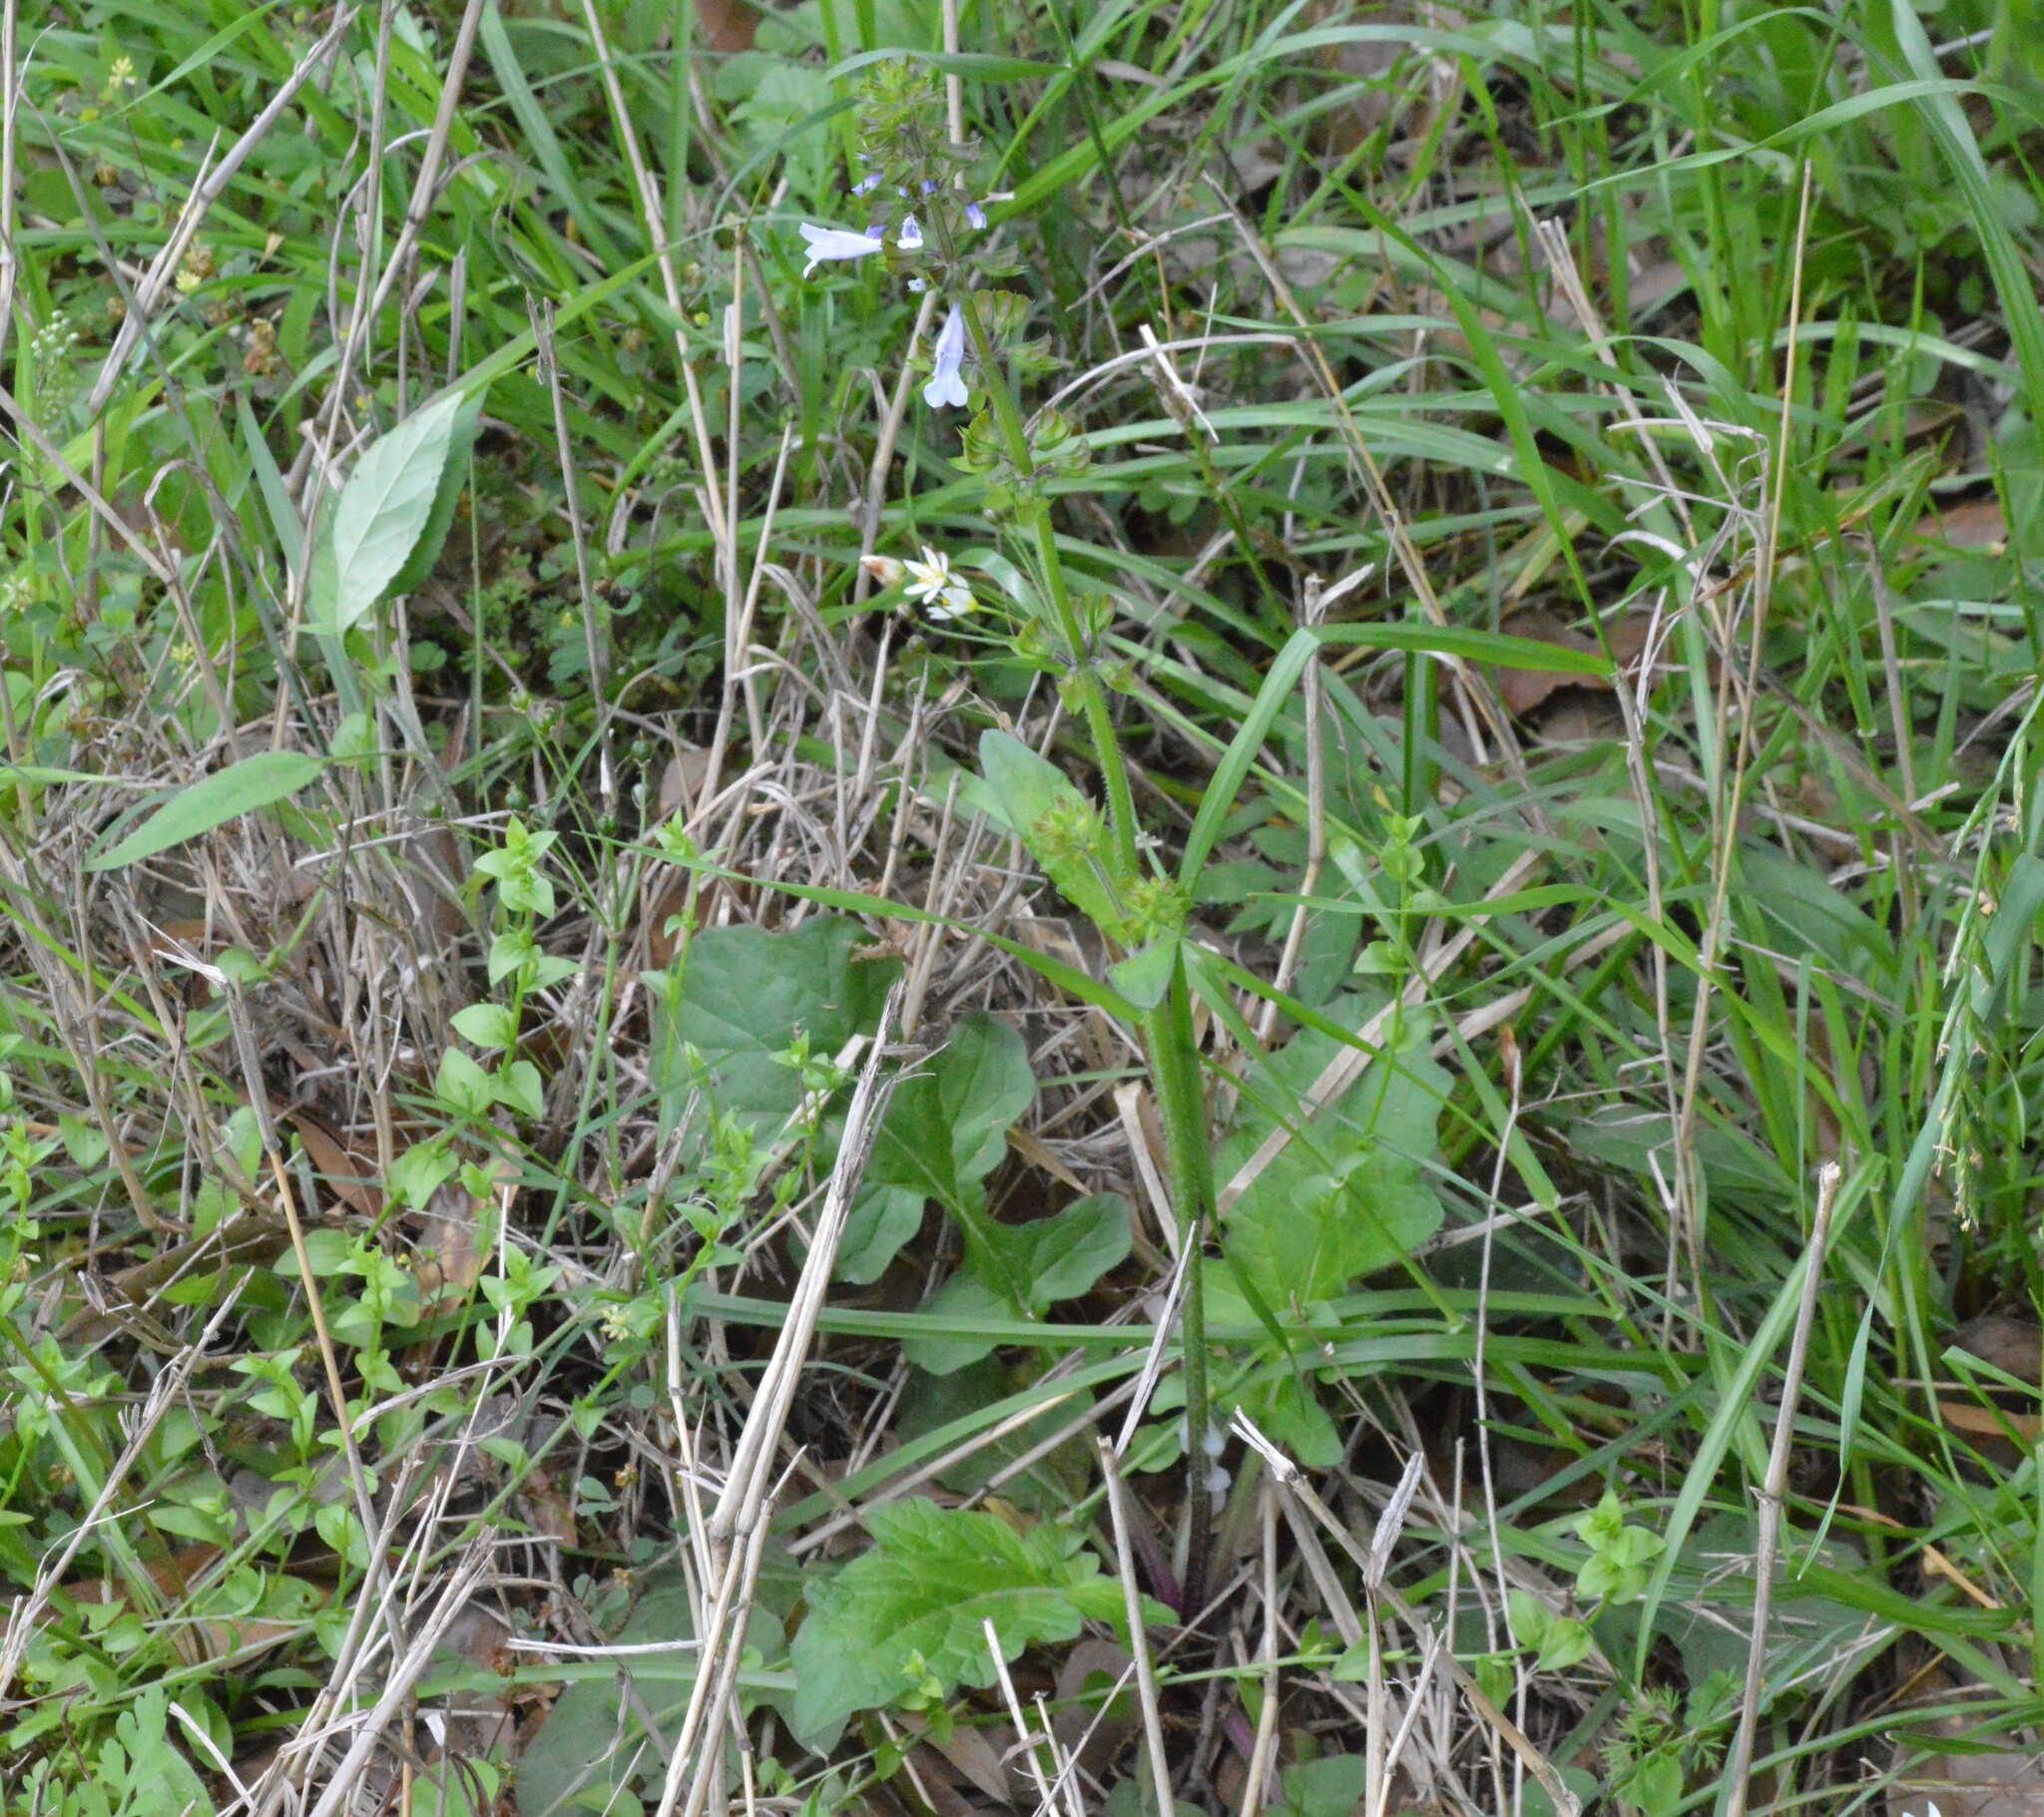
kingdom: Plantae
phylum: Tracheophyta
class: Magnoliopsida
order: Lamiales
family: Lamiaceae
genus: Salvia
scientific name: Salvia lyrata
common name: Cancerweed
